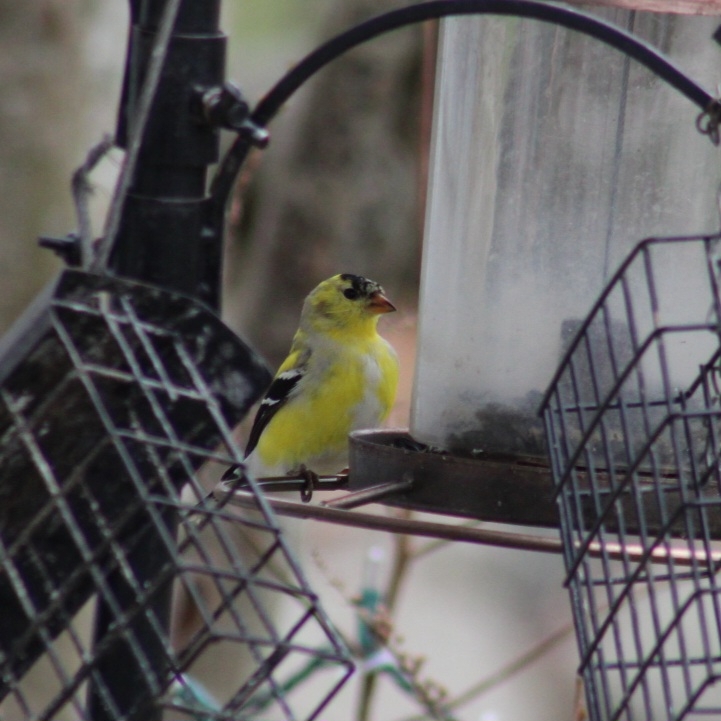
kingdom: Animalia
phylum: Chordata
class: Aves
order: Passeriformes
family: Fringillidae
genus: Spinus
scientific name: Spinus tristis
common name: American goldfinch
